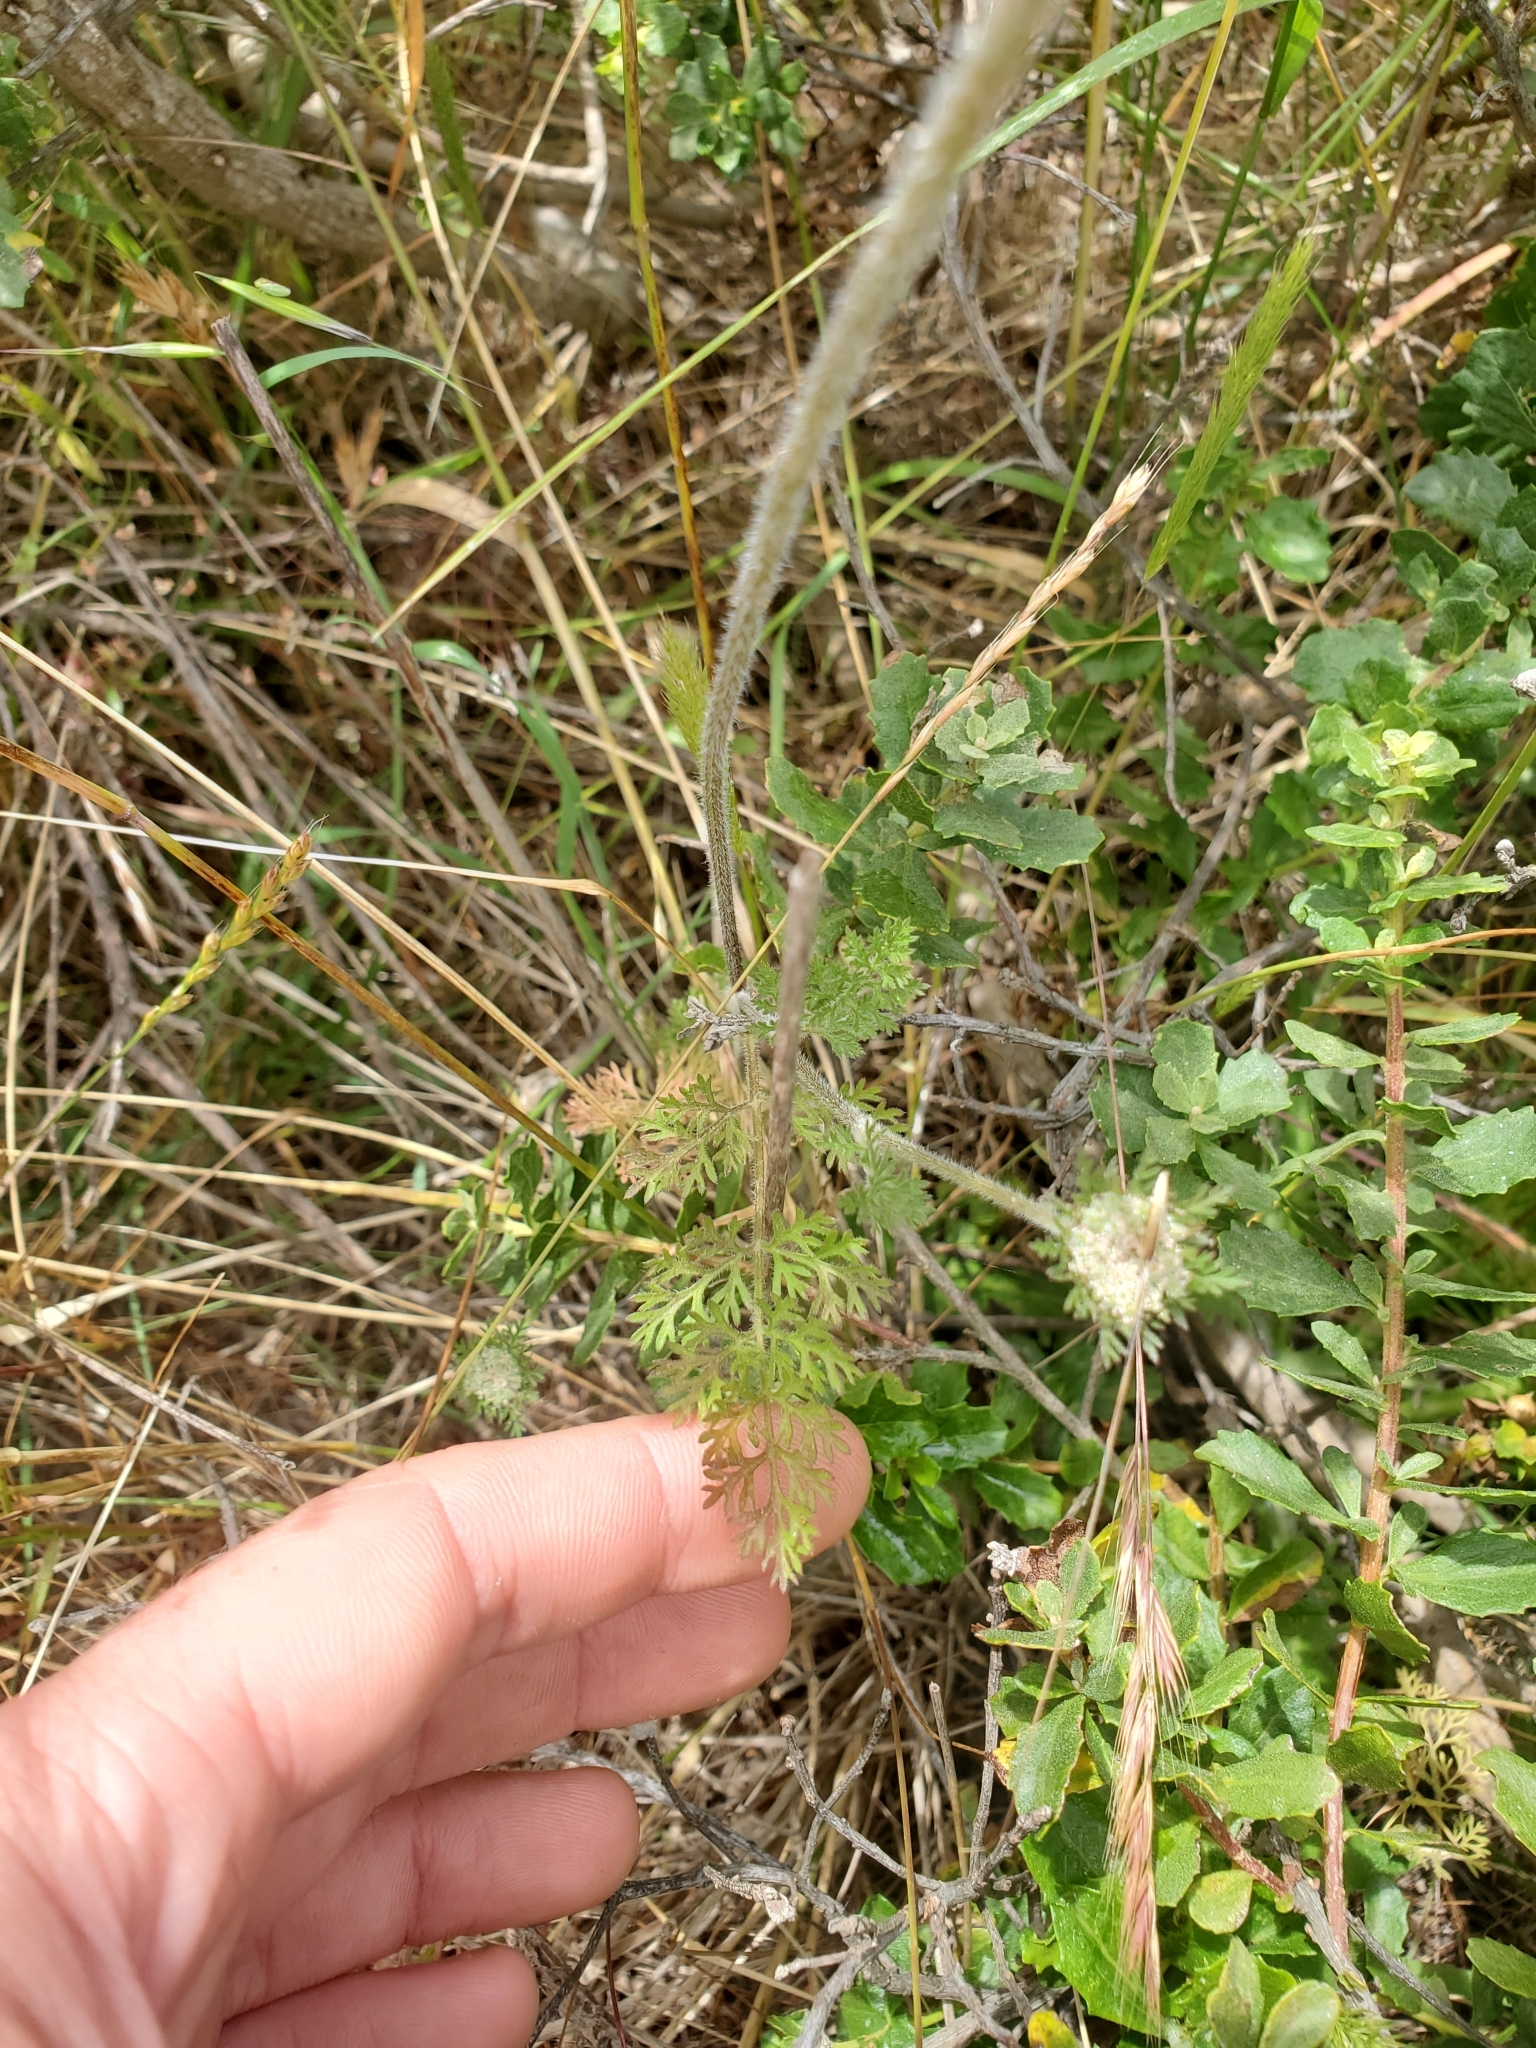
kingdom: Plantae
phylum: Tracheophyta
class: Magnoliopsida
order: Apiales
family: Apiaceae
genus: Daucus
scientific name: Daucus pusillus
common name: Southwest wild carrot
